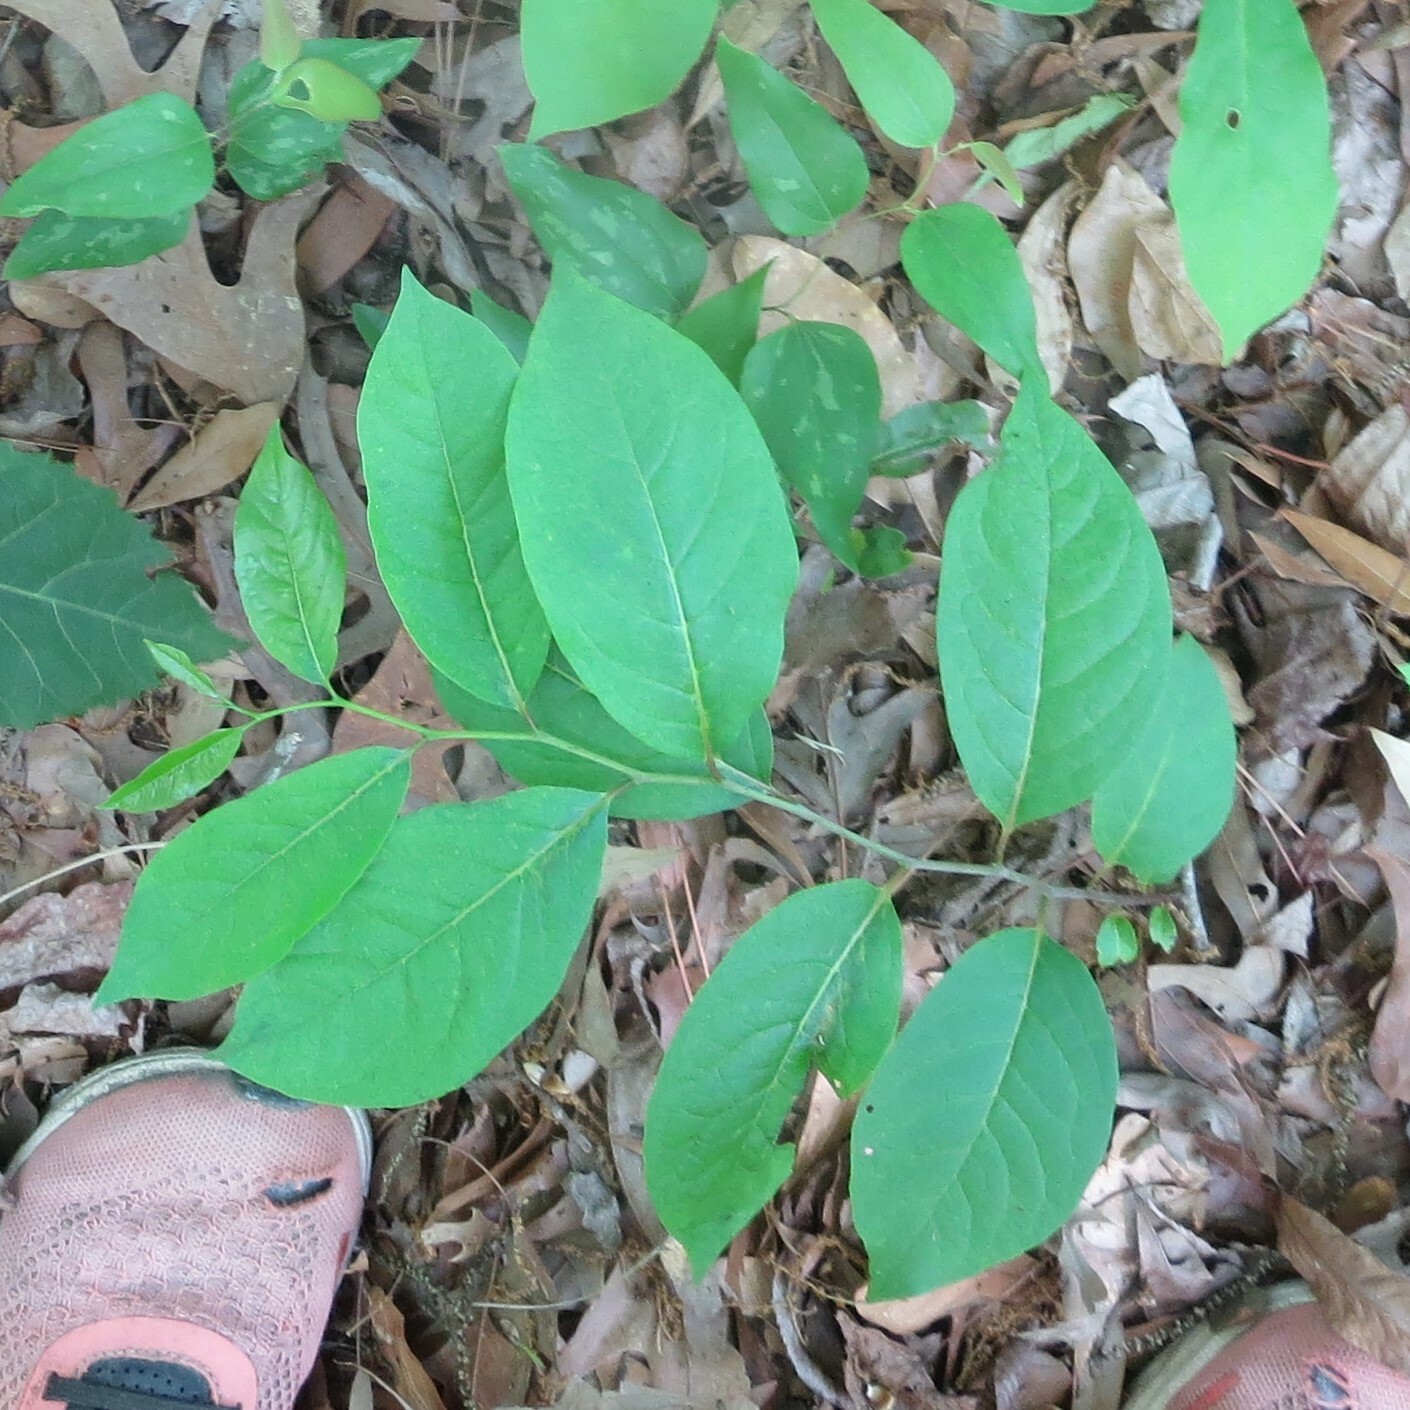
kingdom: Plantae
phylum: Tracheophyta
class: Magnoliopsida
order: Ericales
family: Ebenaceae
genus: Diospyros
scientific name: Diospyros virginiana
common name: Persimmon
